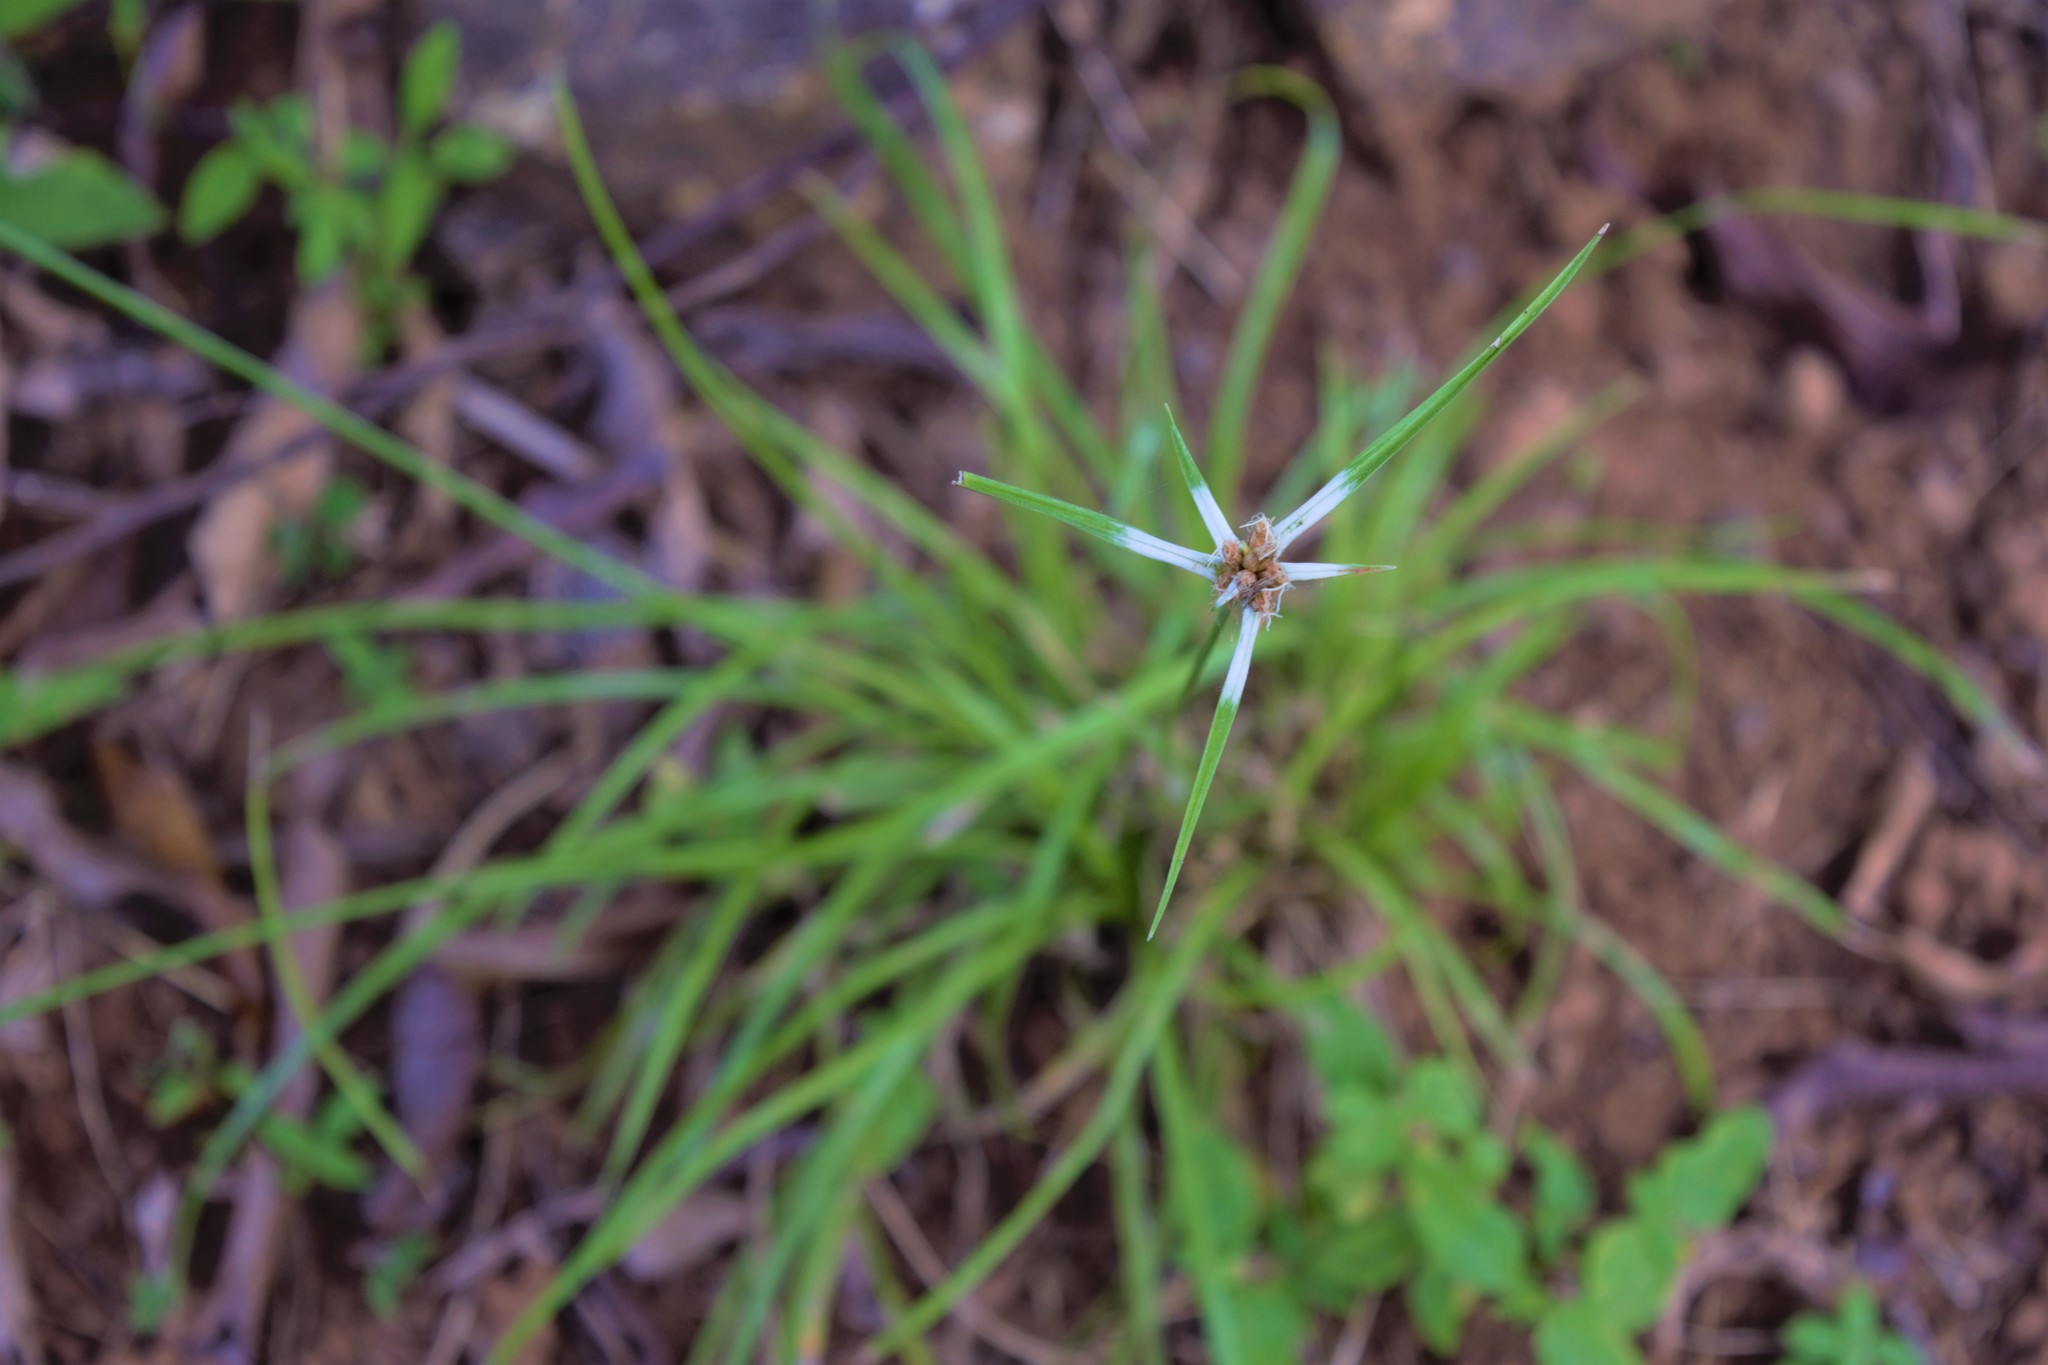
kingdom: Plantae
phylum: Tracheophyta
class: Liliopsida
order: Poales
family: Cyperaceae
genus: Rhynchospora
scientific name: Rhynchospora nervosa
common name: Star sedge
